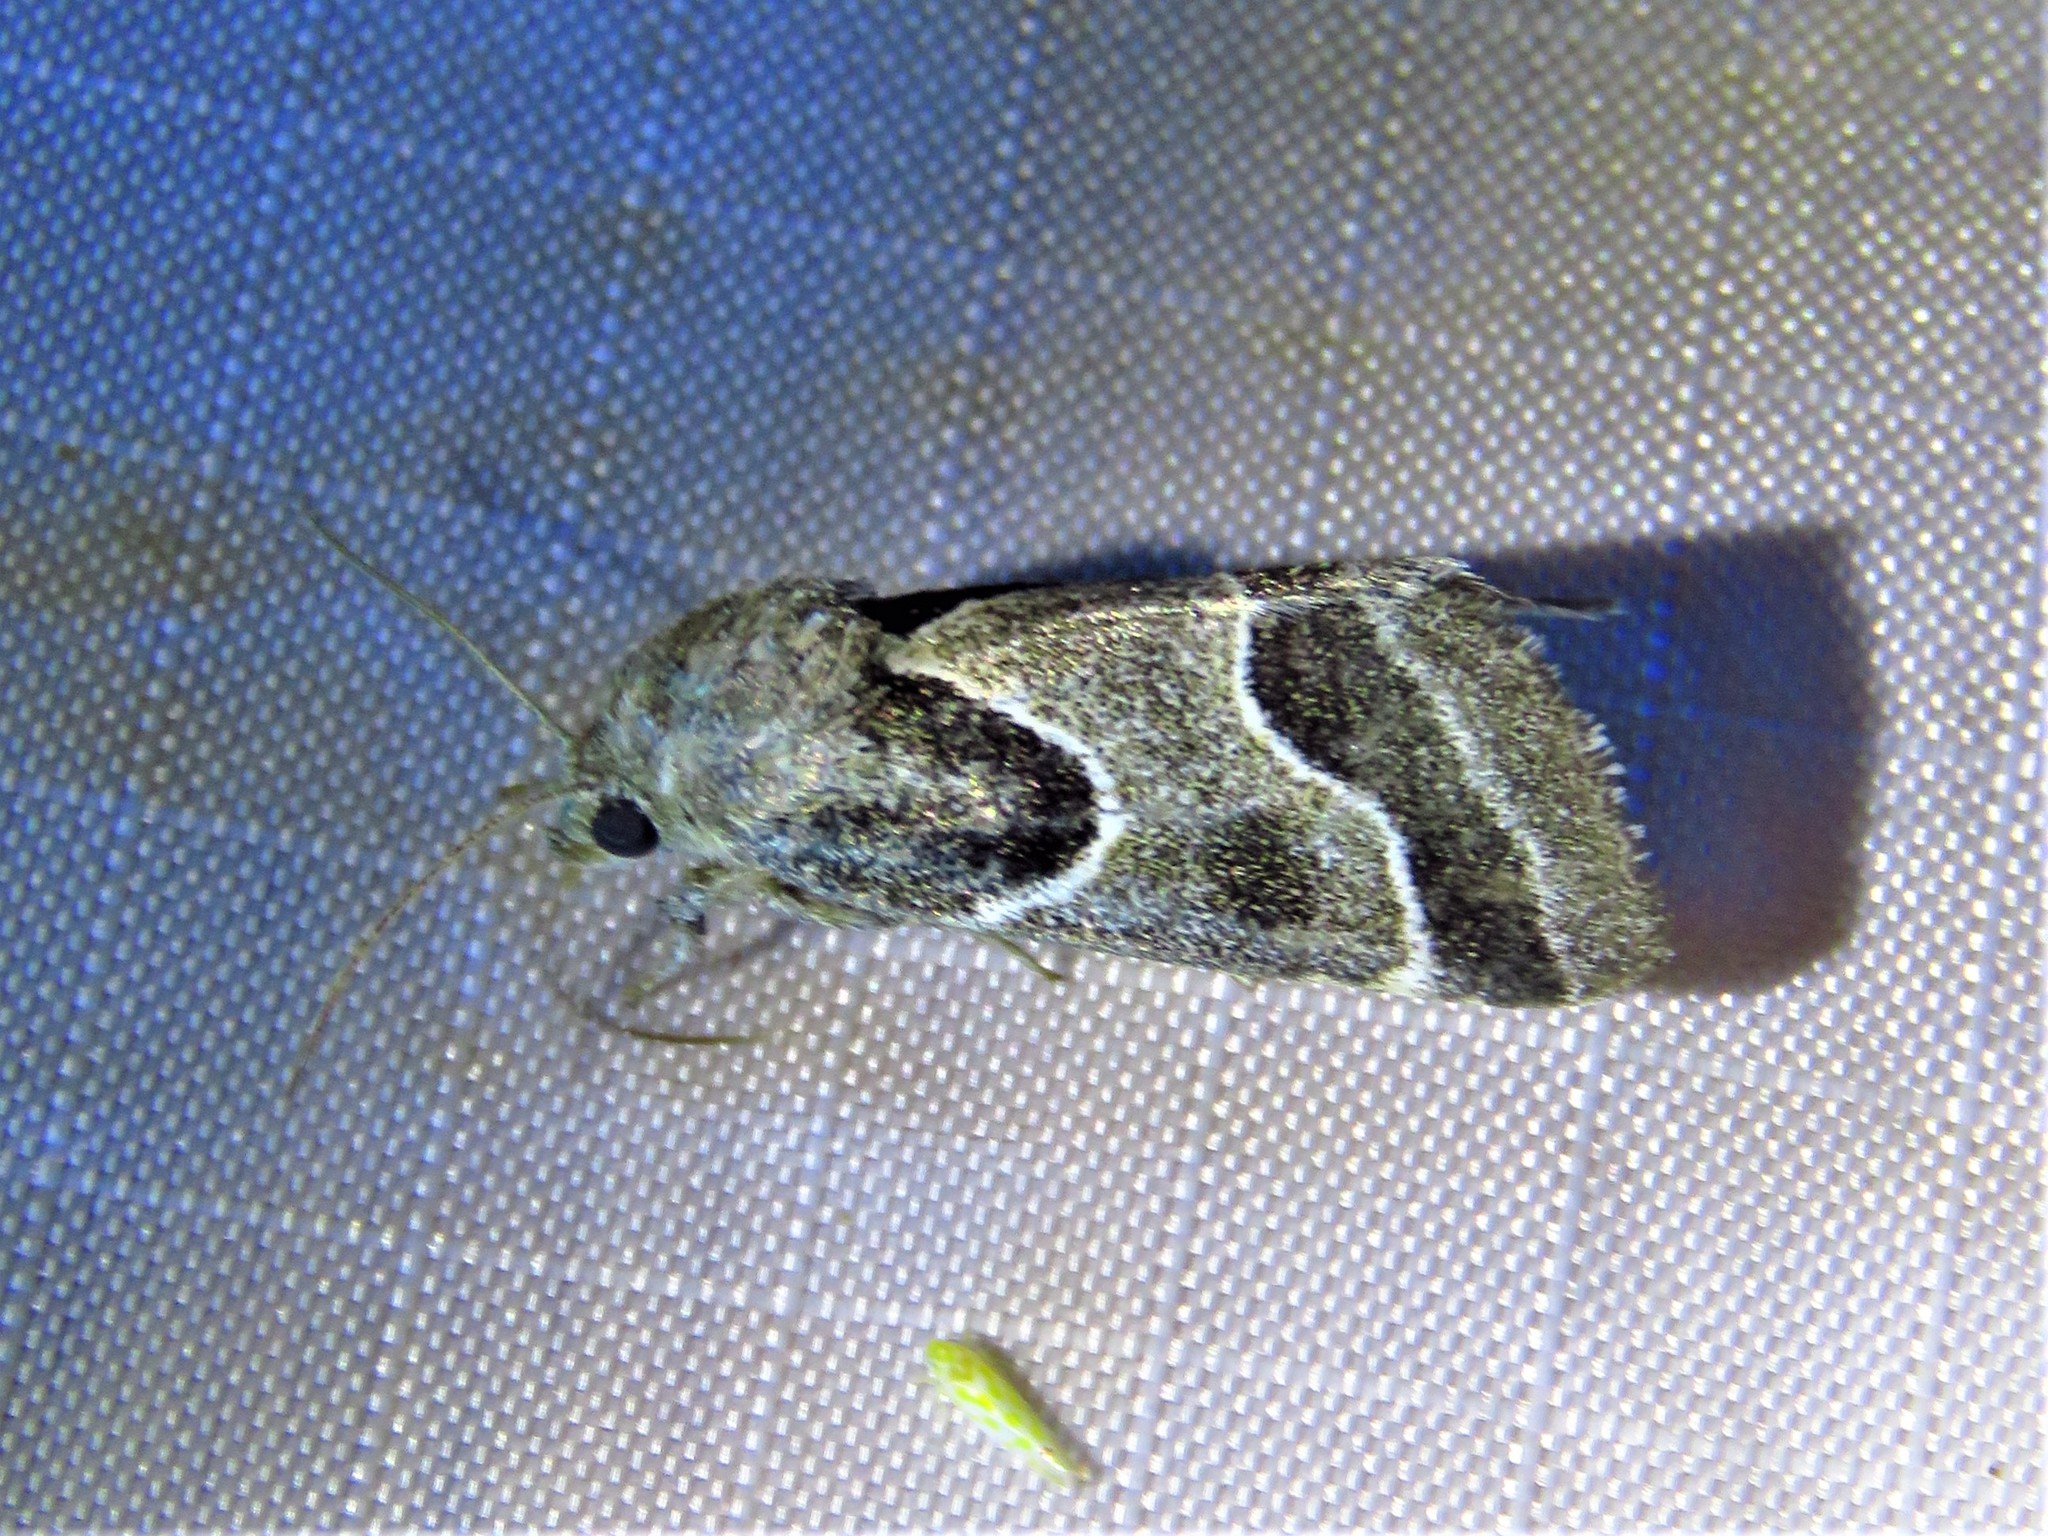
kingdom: Animalia
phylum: Arthropoda
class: Insecta
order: Lepidoptera
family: Noctuidae
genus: Schinia
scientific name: Schinia rivulosa
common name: Scarce meal-moth
